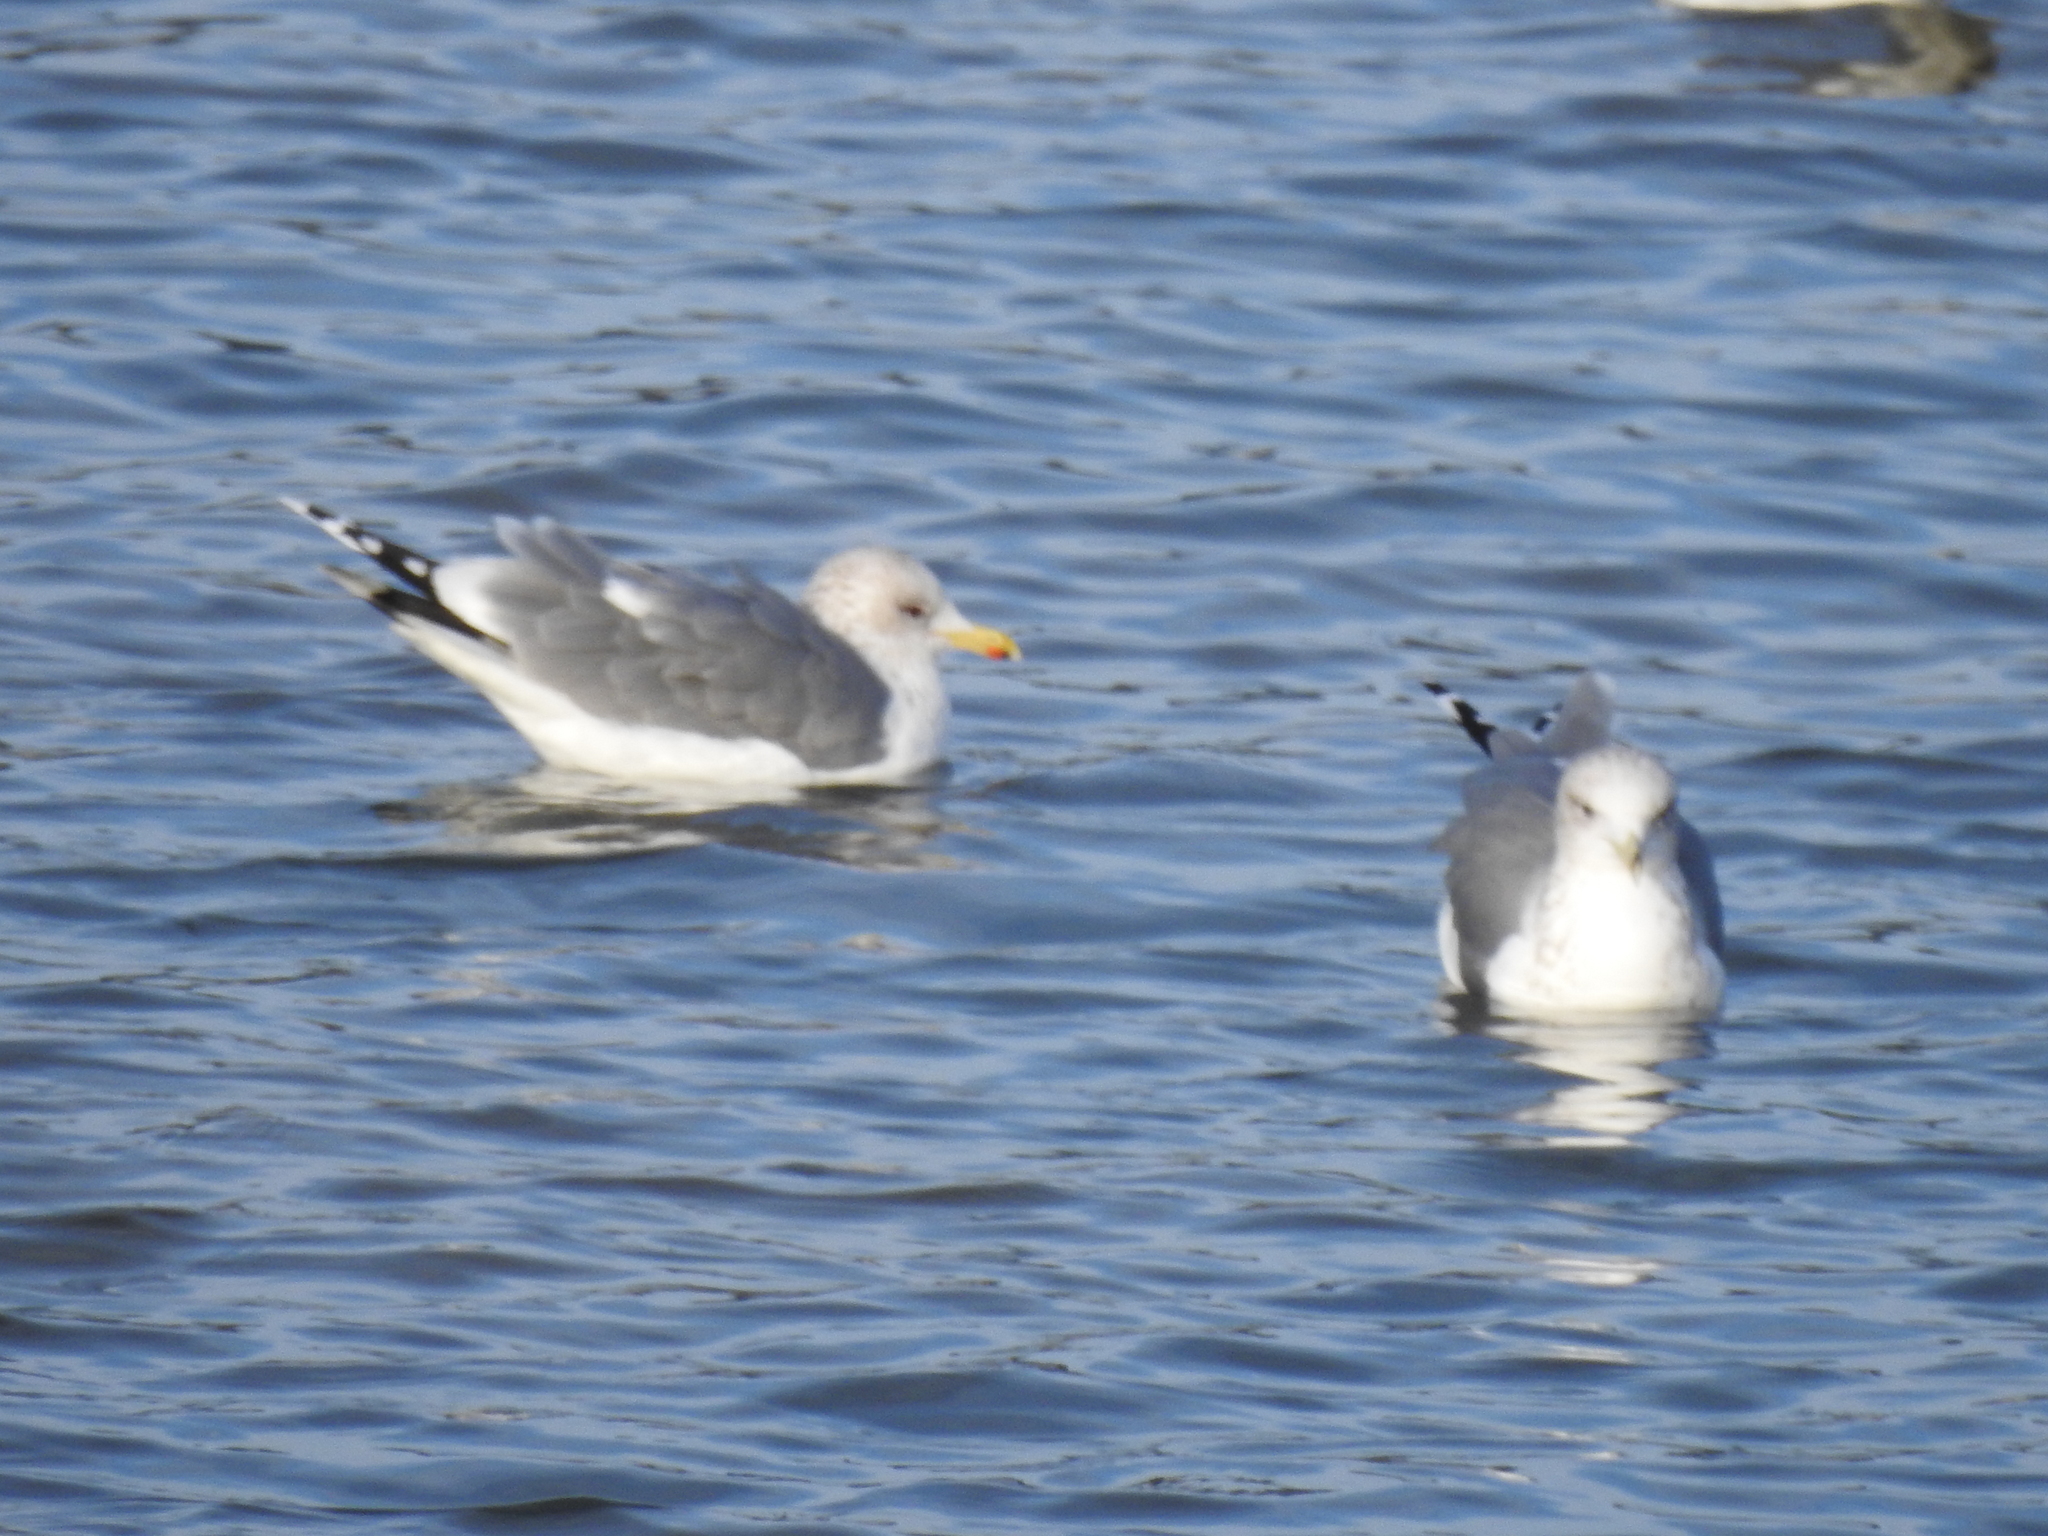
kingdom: Animalia
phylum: Chordata
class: Aves
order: Charadriiformes
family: Laridae
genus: Larus
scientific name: Larus californicus
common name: California gull
